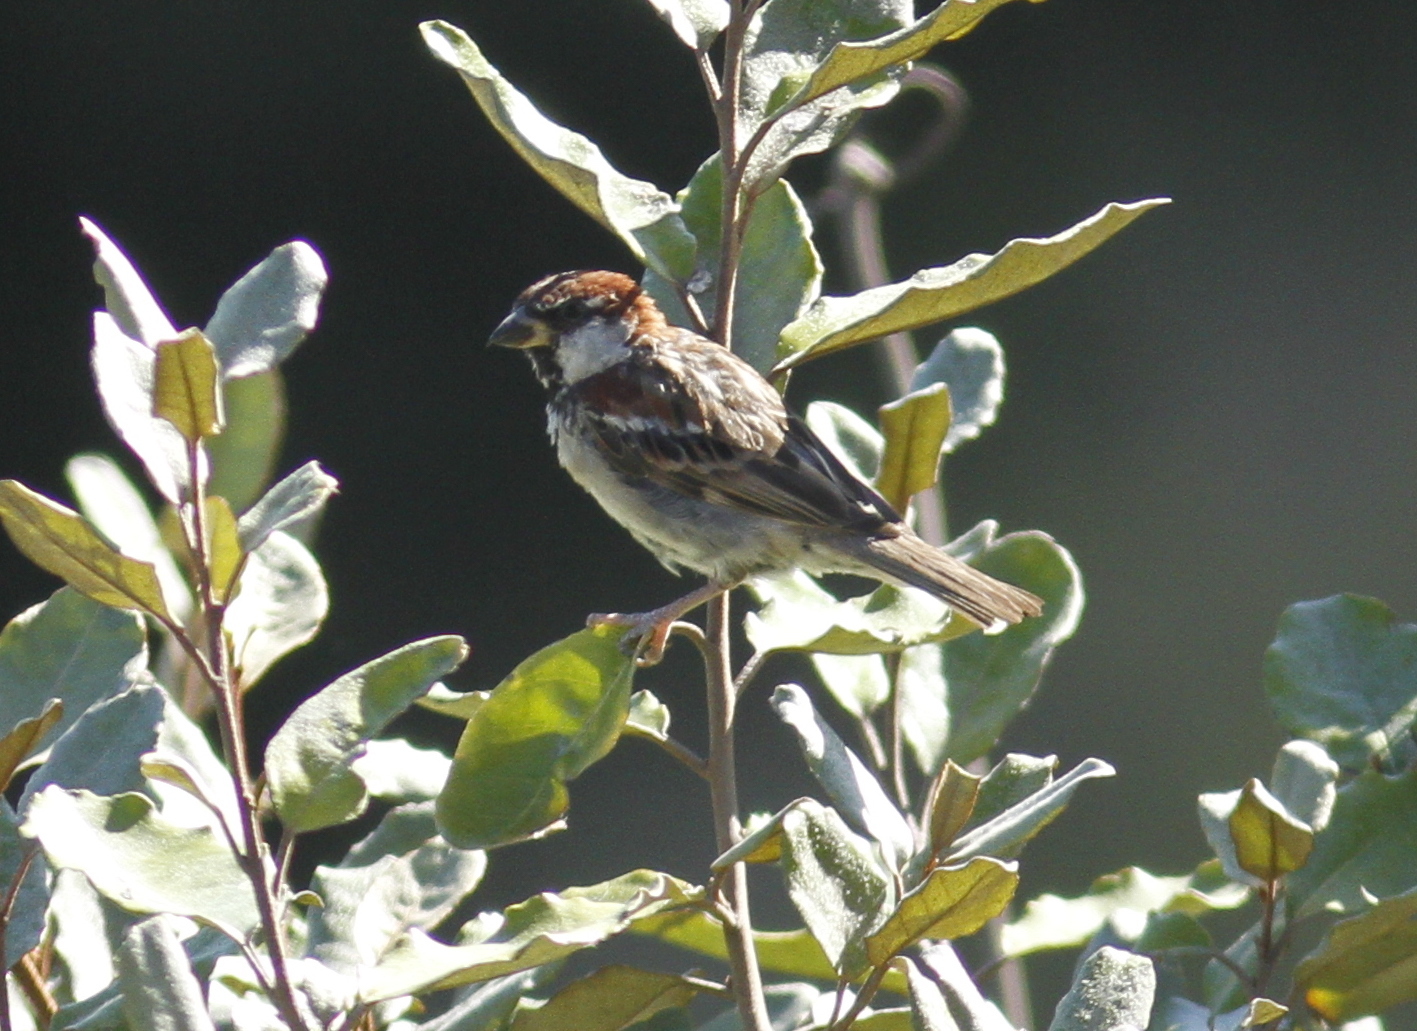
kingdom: Animalia
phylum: Chordata
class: Aves
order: Passeriformes
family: Passeridae
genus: Passer
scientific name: Passer italiae
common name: Italian sparrow
